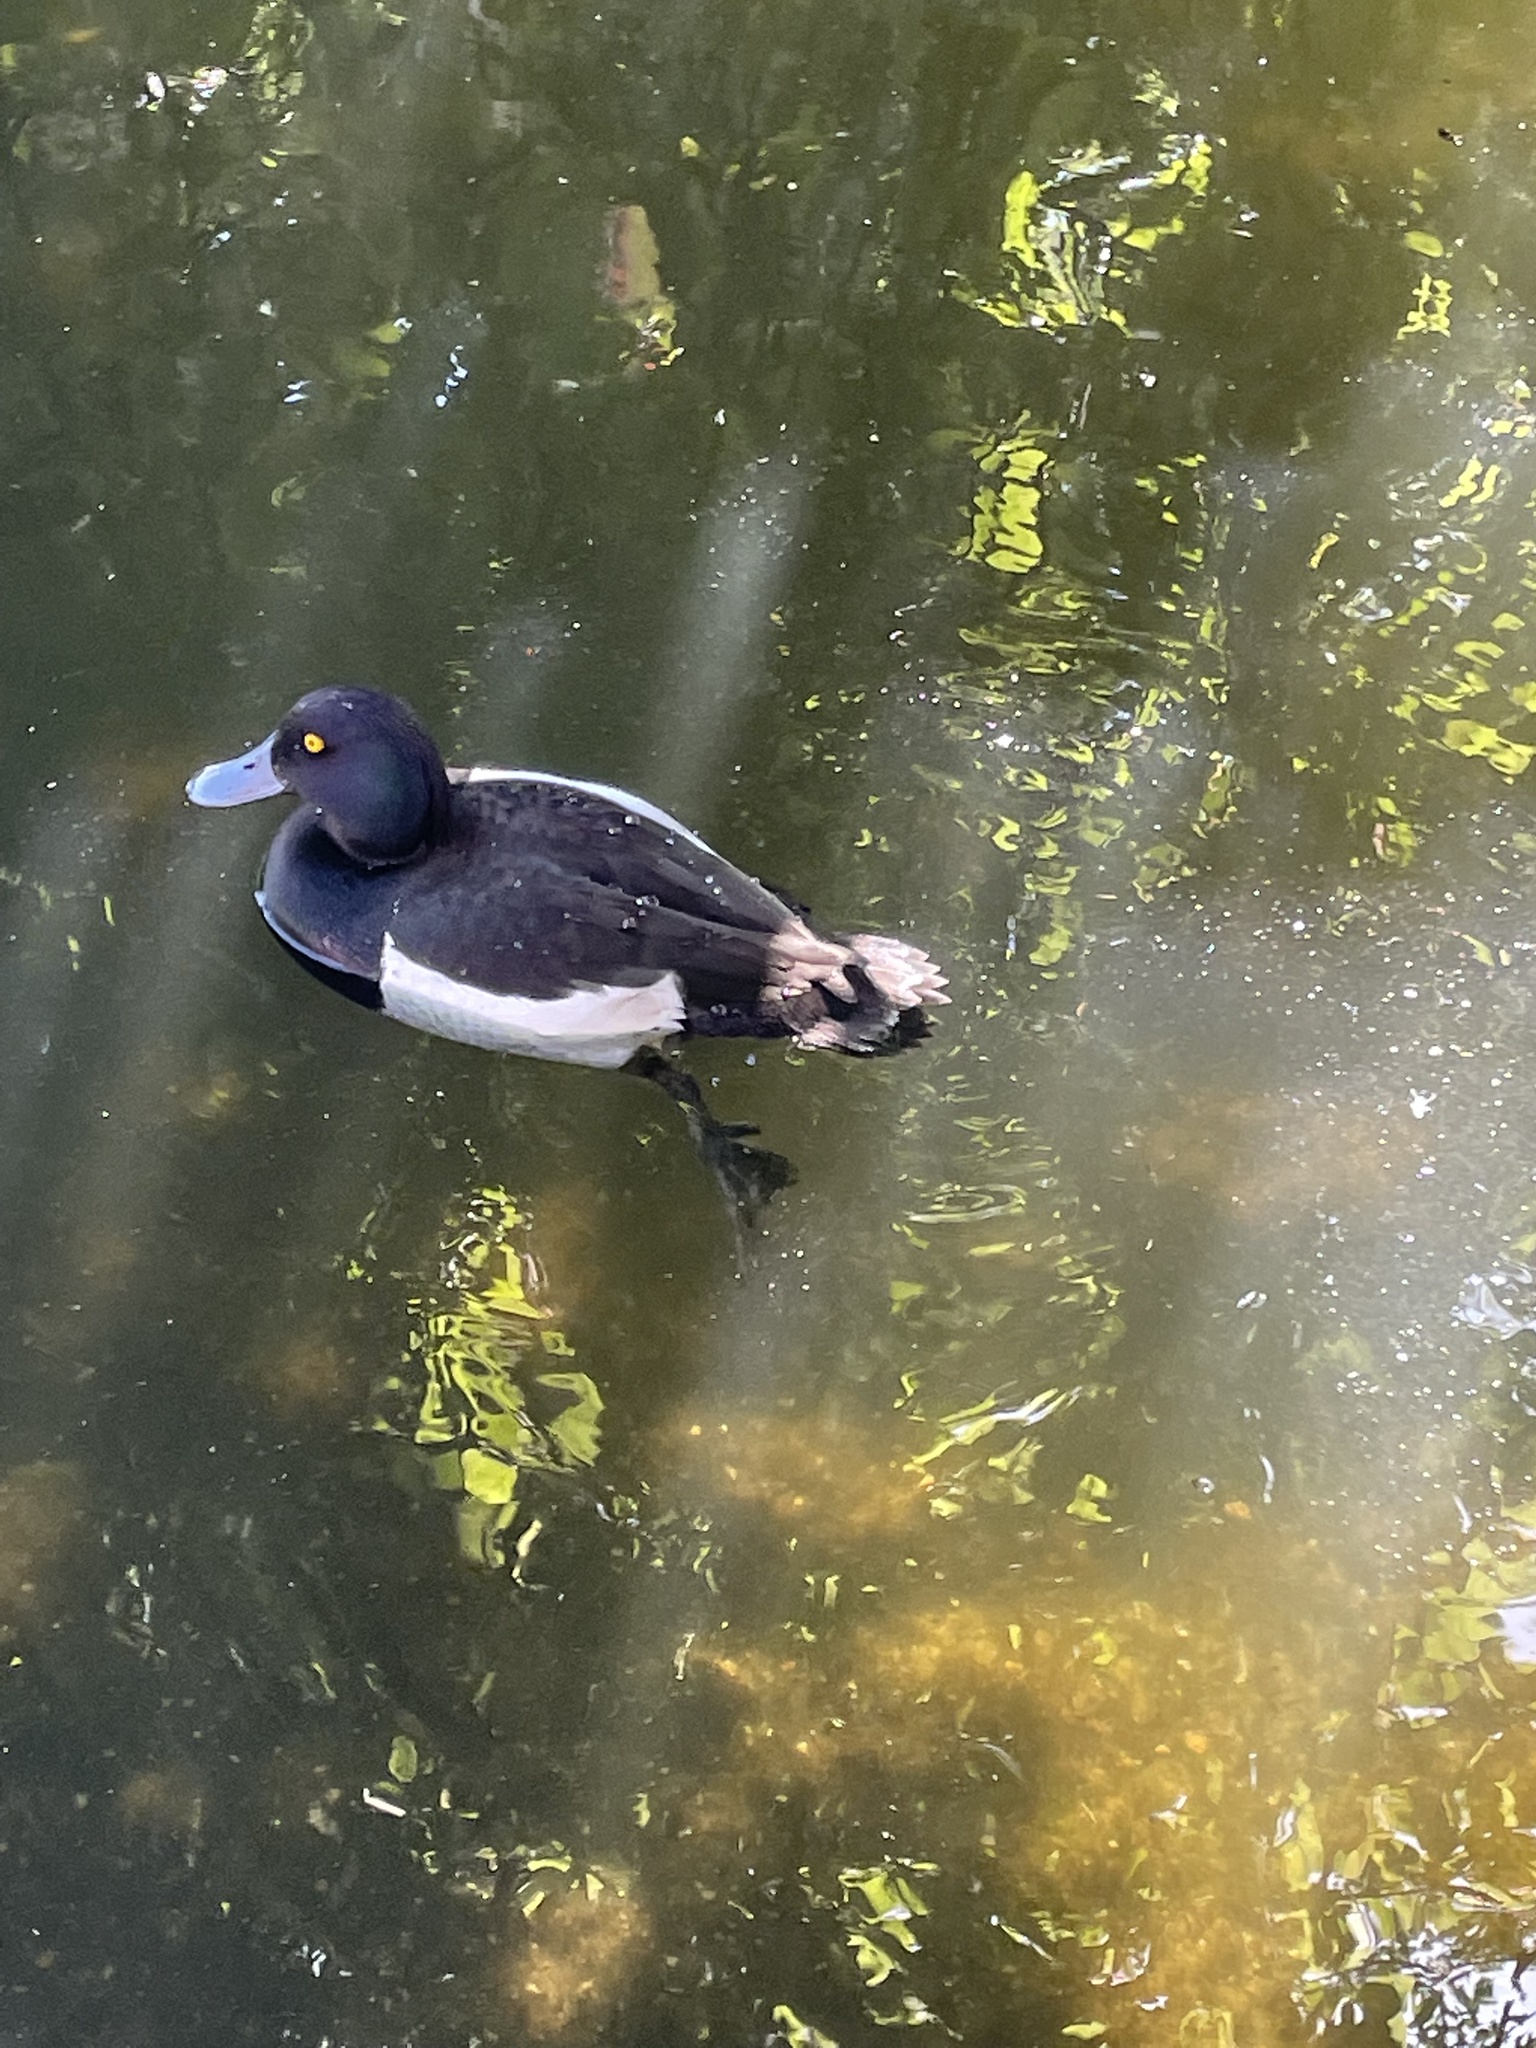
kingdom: Animalia
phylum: Chordata
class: Aves
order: Anseriformes
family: Anatidae
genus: Aythya
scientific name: Aythya fuligula
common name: Tufted duck
